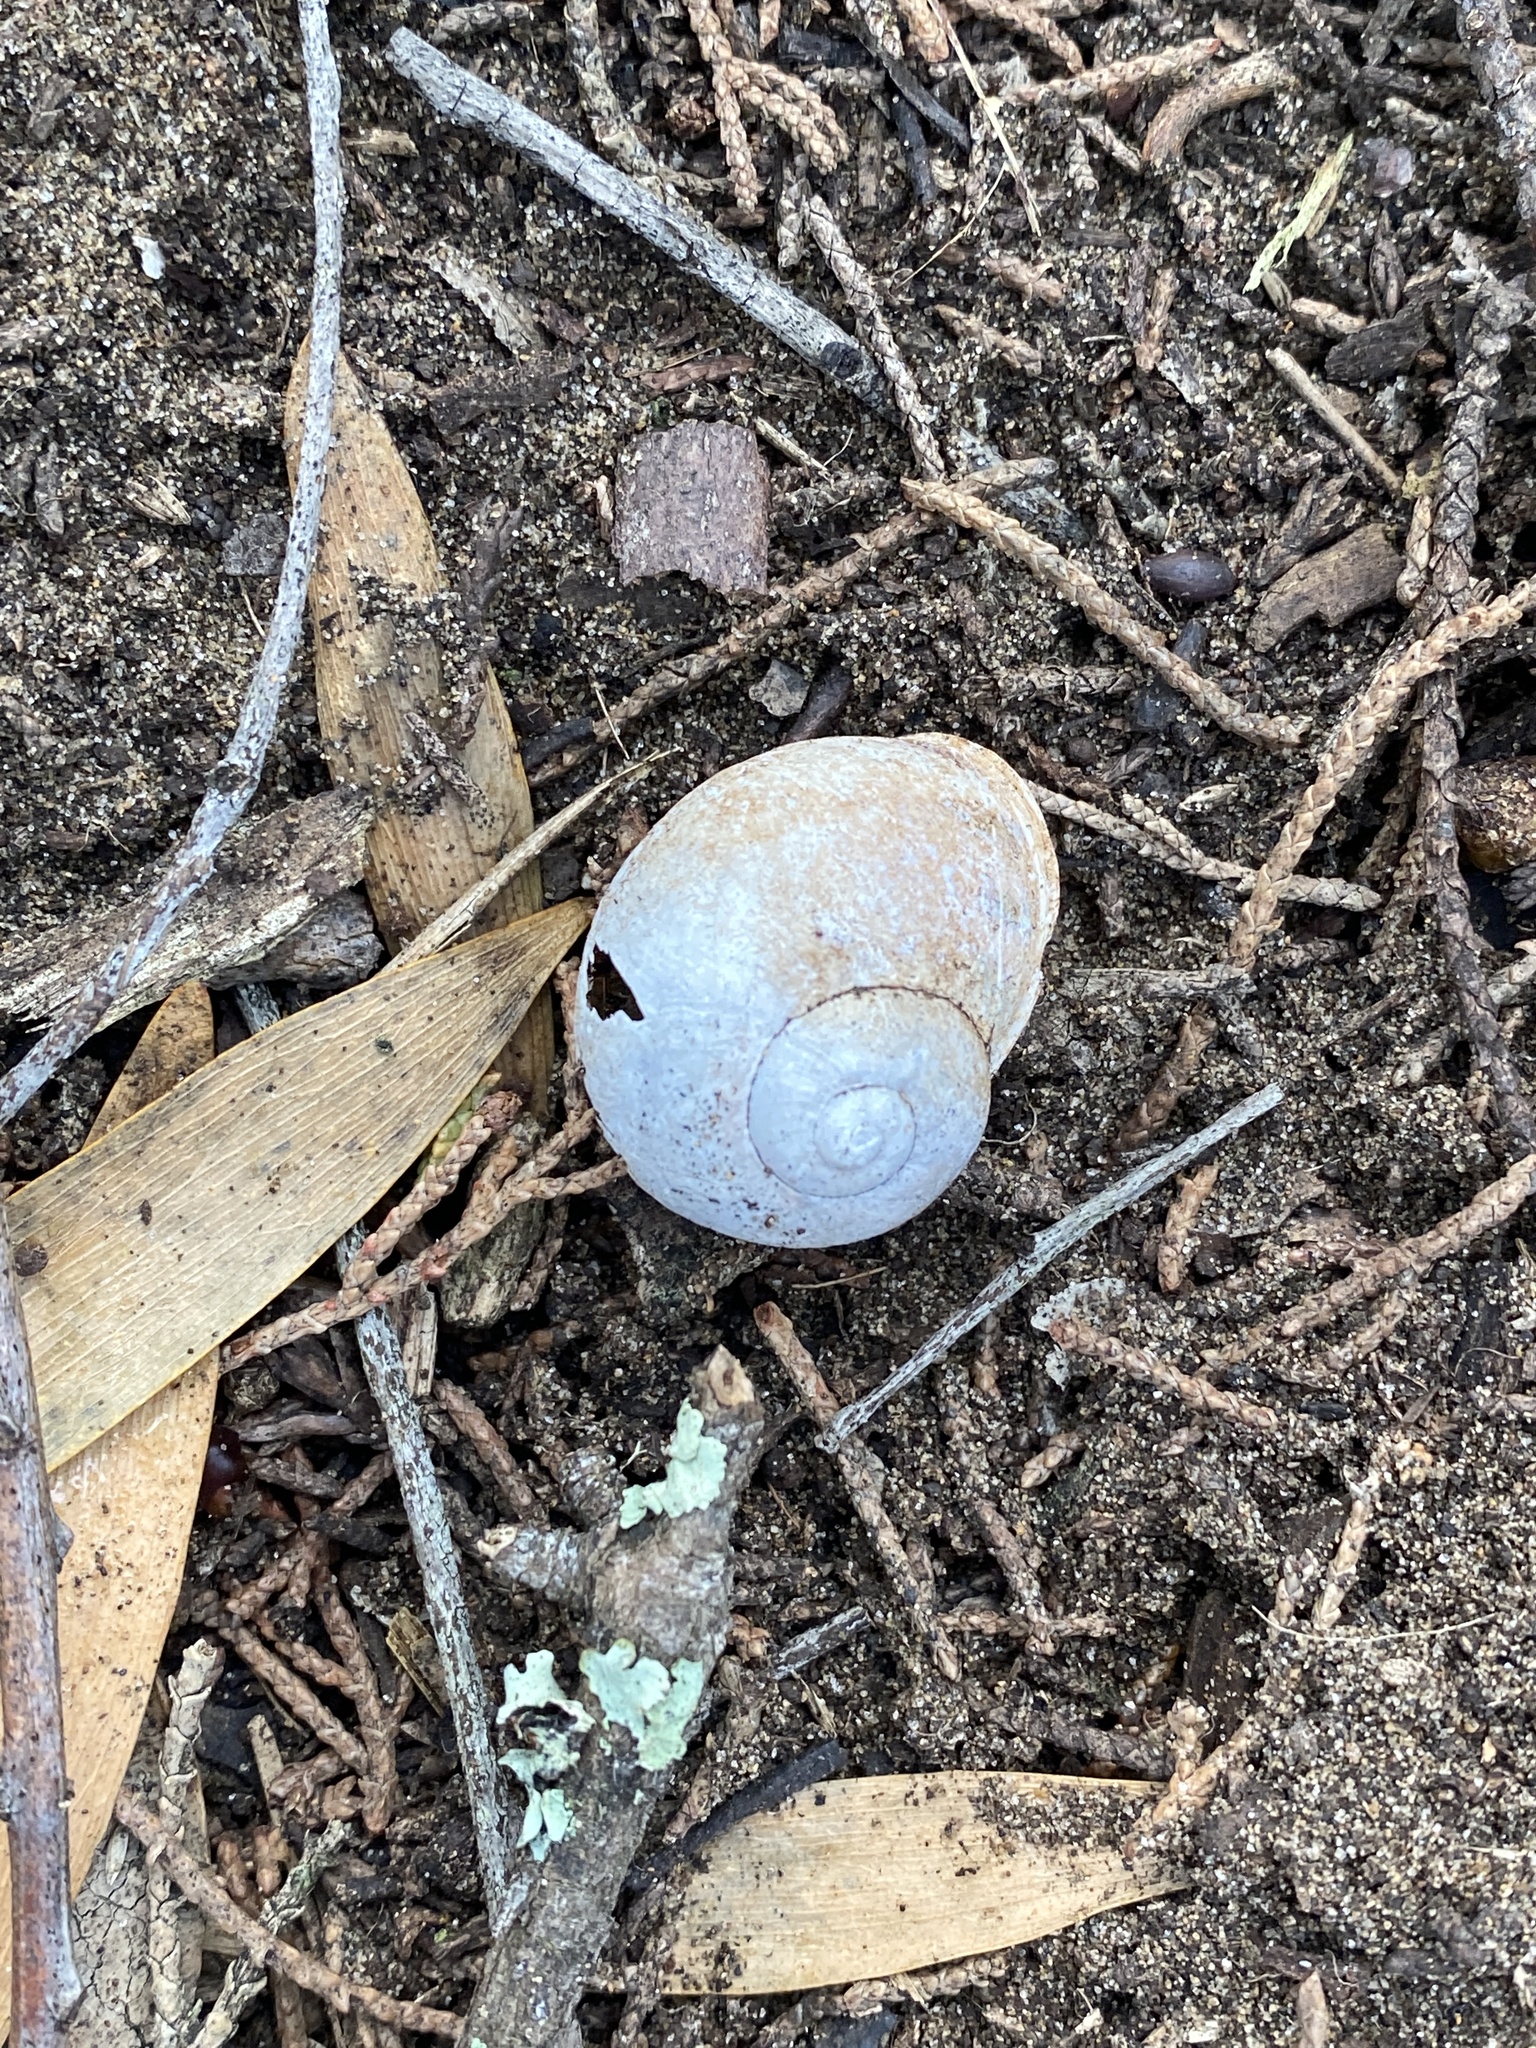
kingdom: Animalia
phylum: Mollusca
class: Gastropoda
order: Stylommatophora
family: Helicidae
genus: Cornu
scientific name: Cornu aspersum
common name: Brown garden snail
